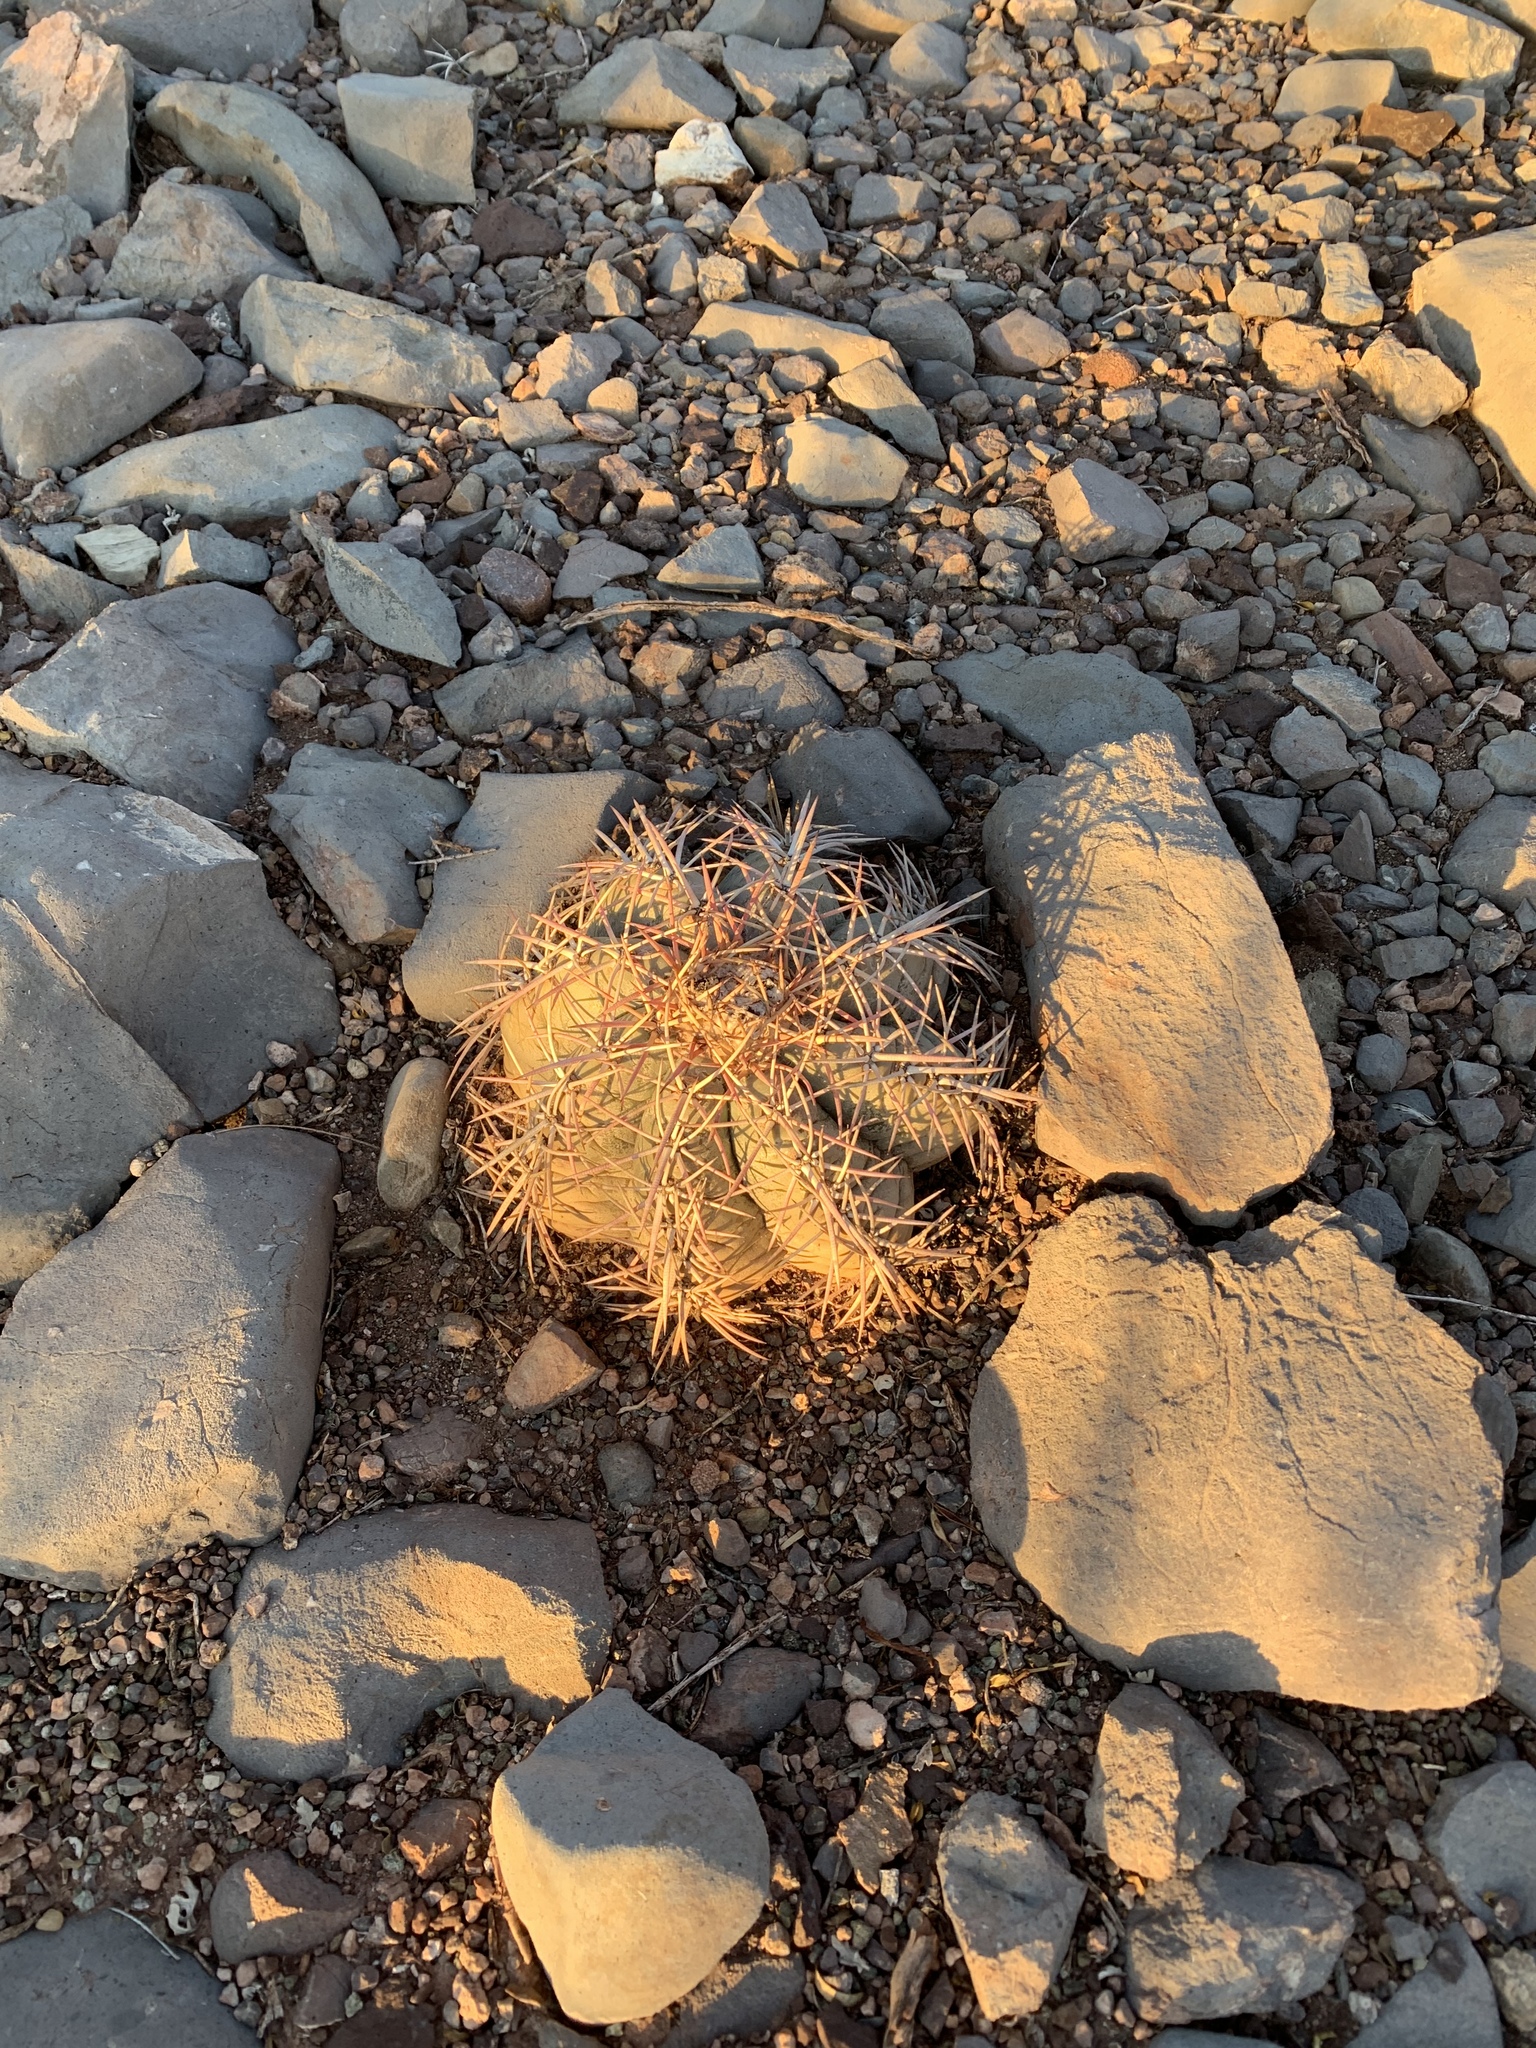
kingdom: Plantae
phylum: Tracheophyta
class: Magnoliopsida
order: Caryophyllales
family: Cactaceae
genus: Echinocactus
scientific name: Echinocactus horizonthalonius
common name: Devilshead
